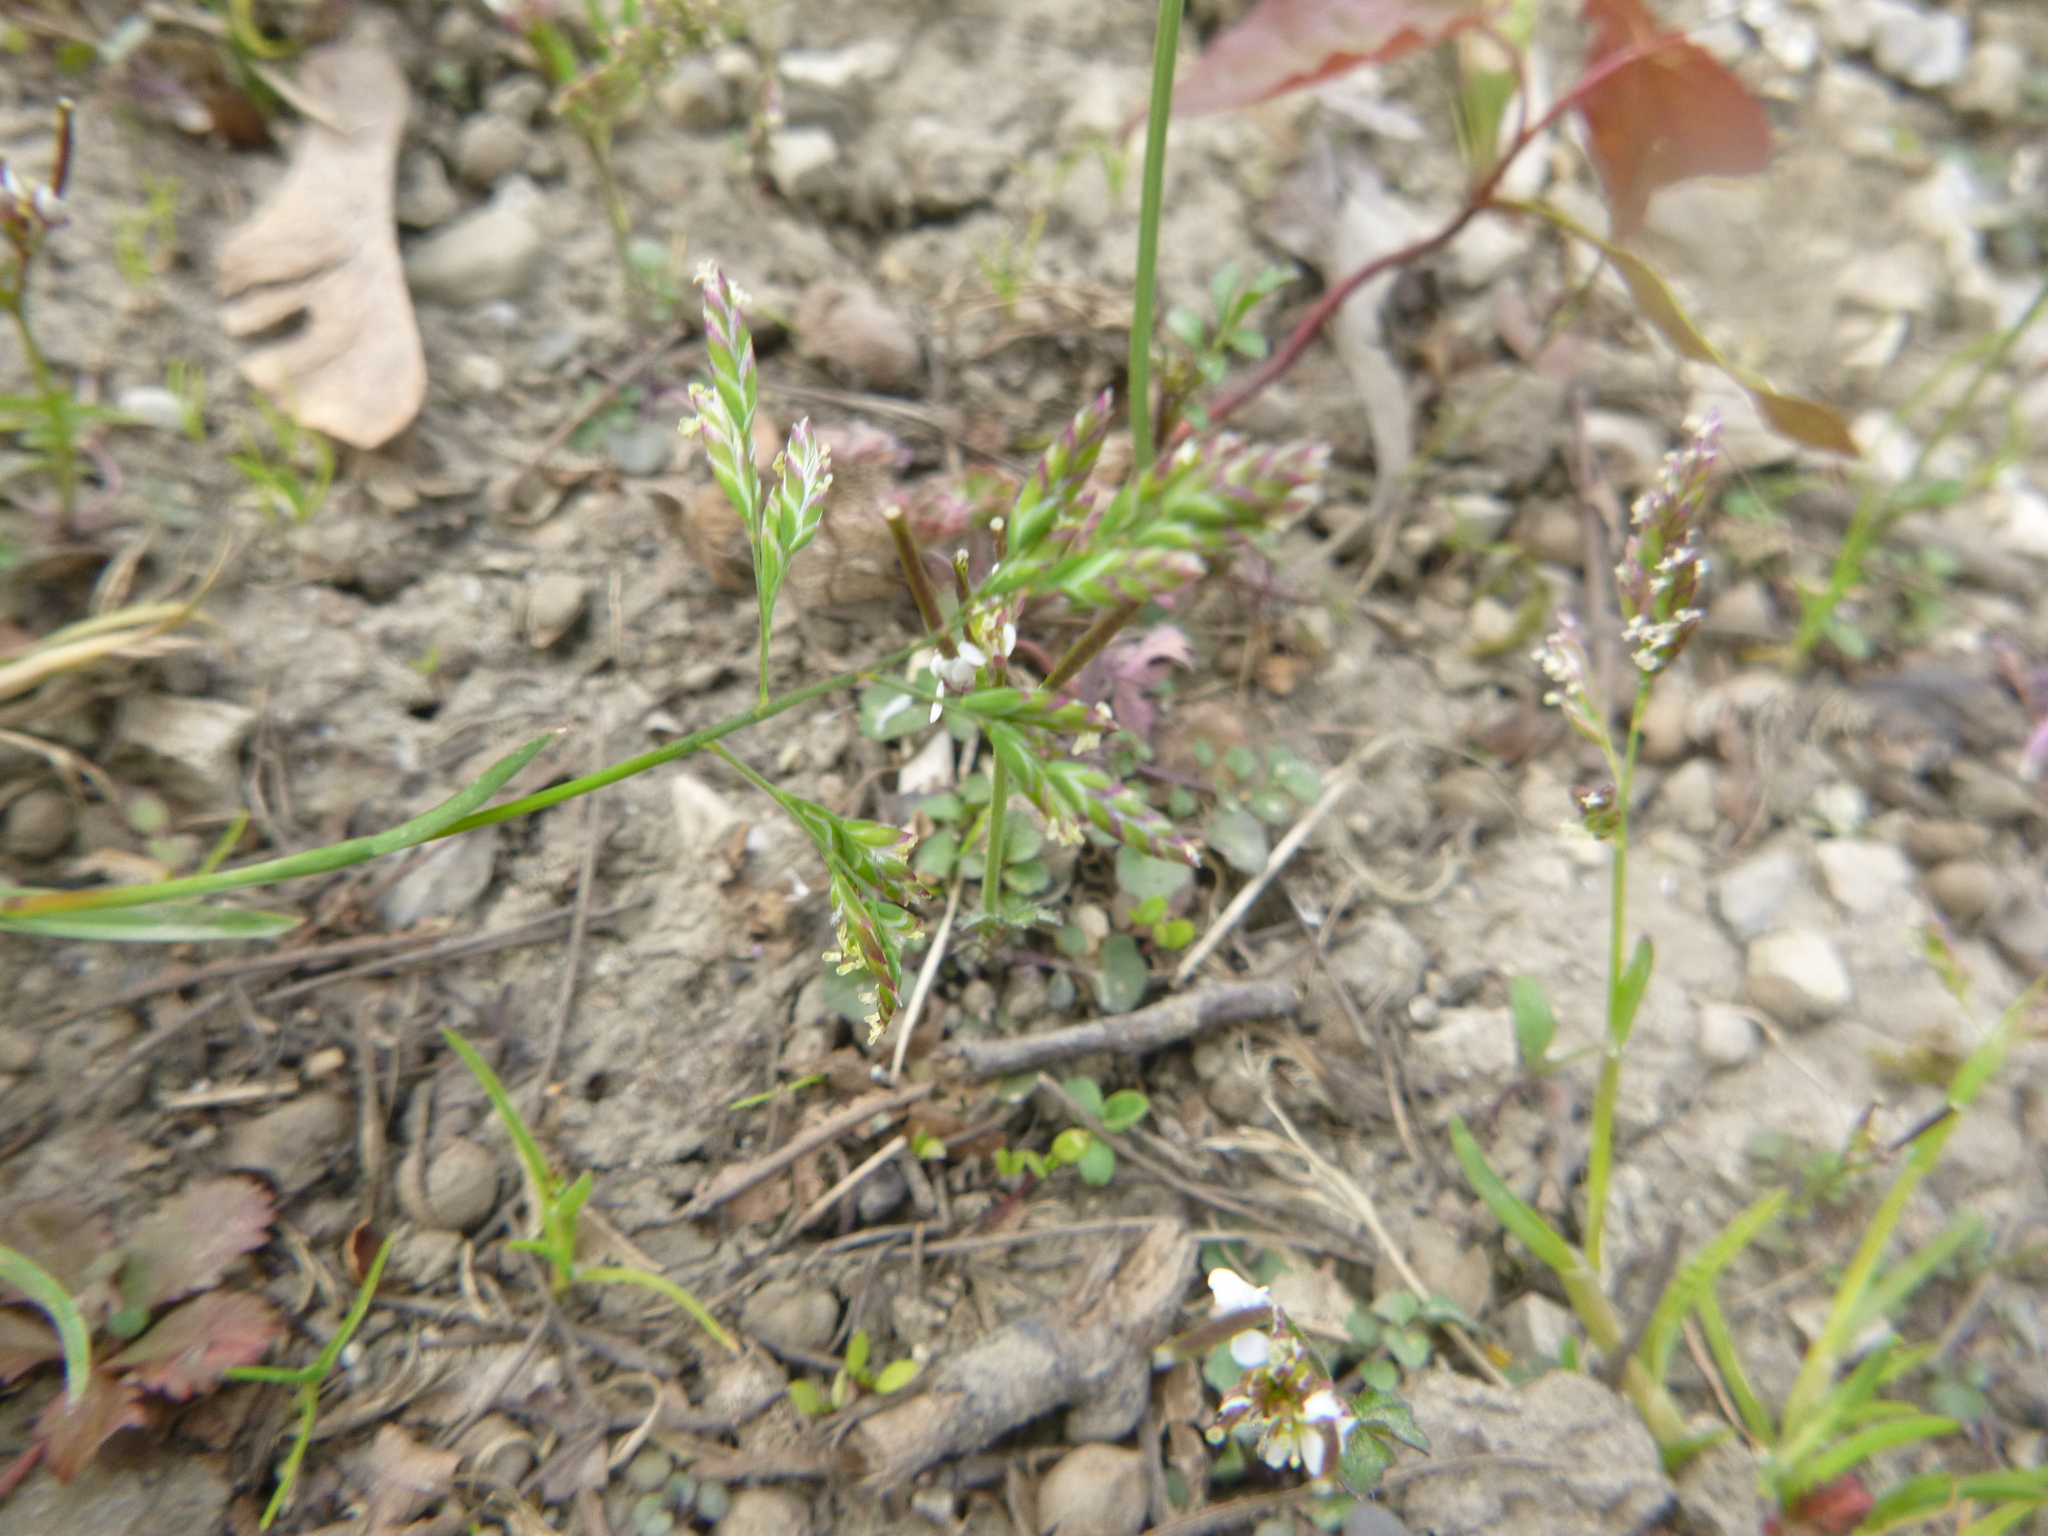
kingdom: Plantae
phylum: Tracheophyta
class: Liliopsida
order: Poales
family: Poaceae
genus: Poa
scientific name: Poa annua
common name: Annual bluegrass
